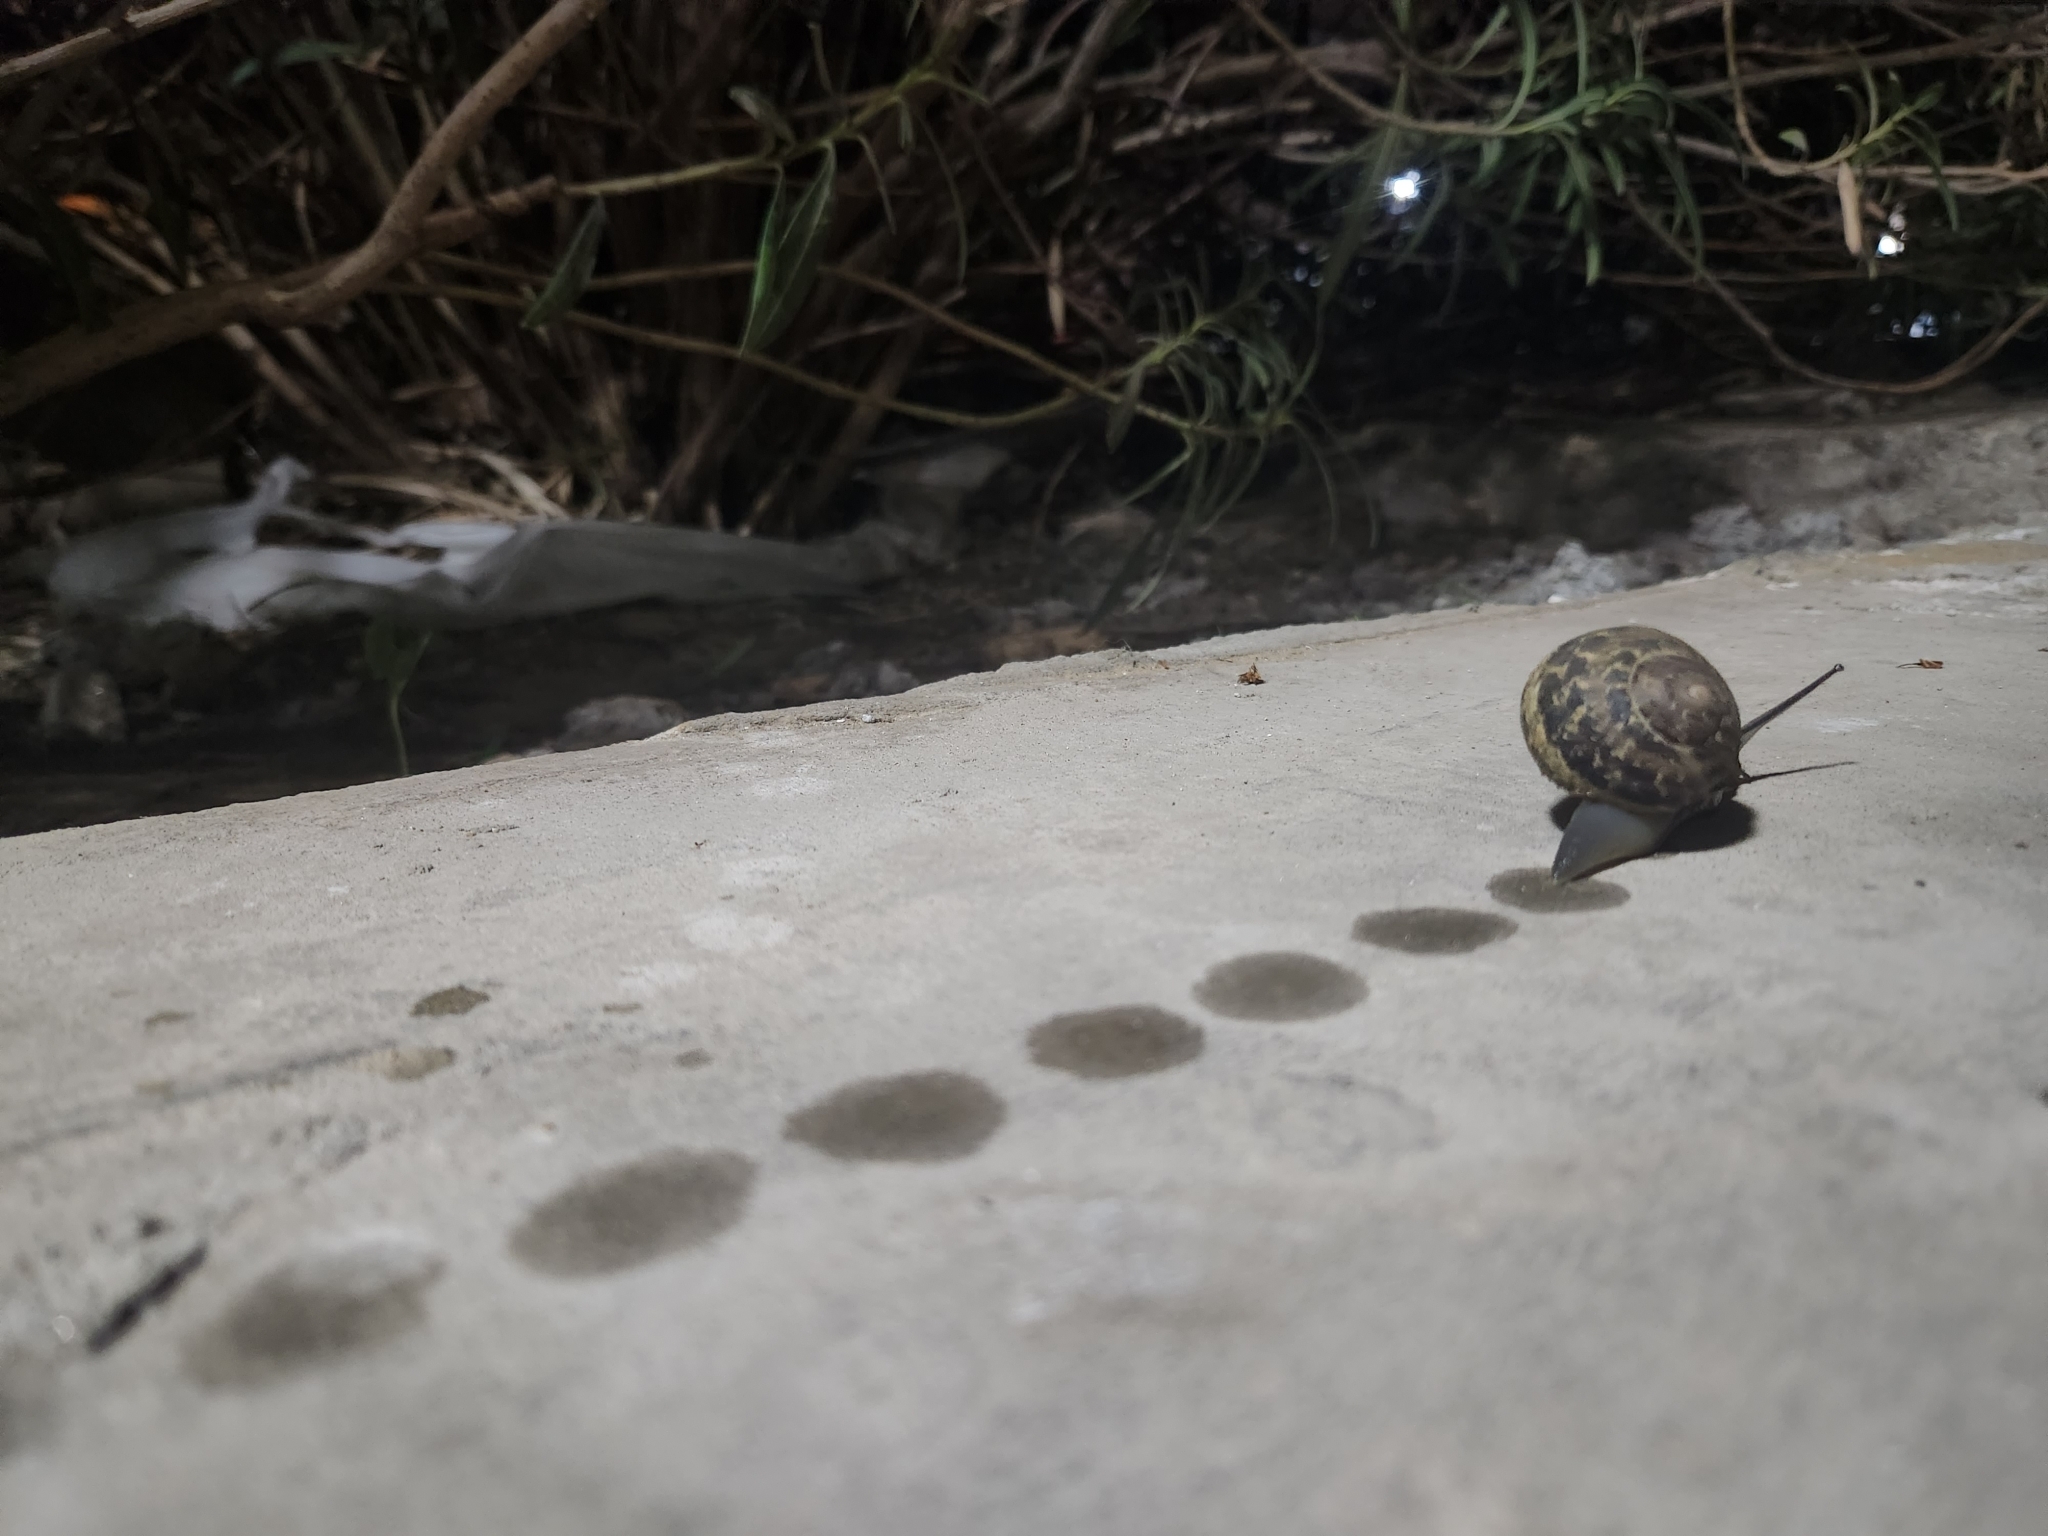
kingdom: Animalia
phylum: Mollusca
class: Gastropoda
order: Stylommatophora
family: Helicidae
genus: Cornu
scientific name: Cornu aspersum
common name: Brown garden snail
